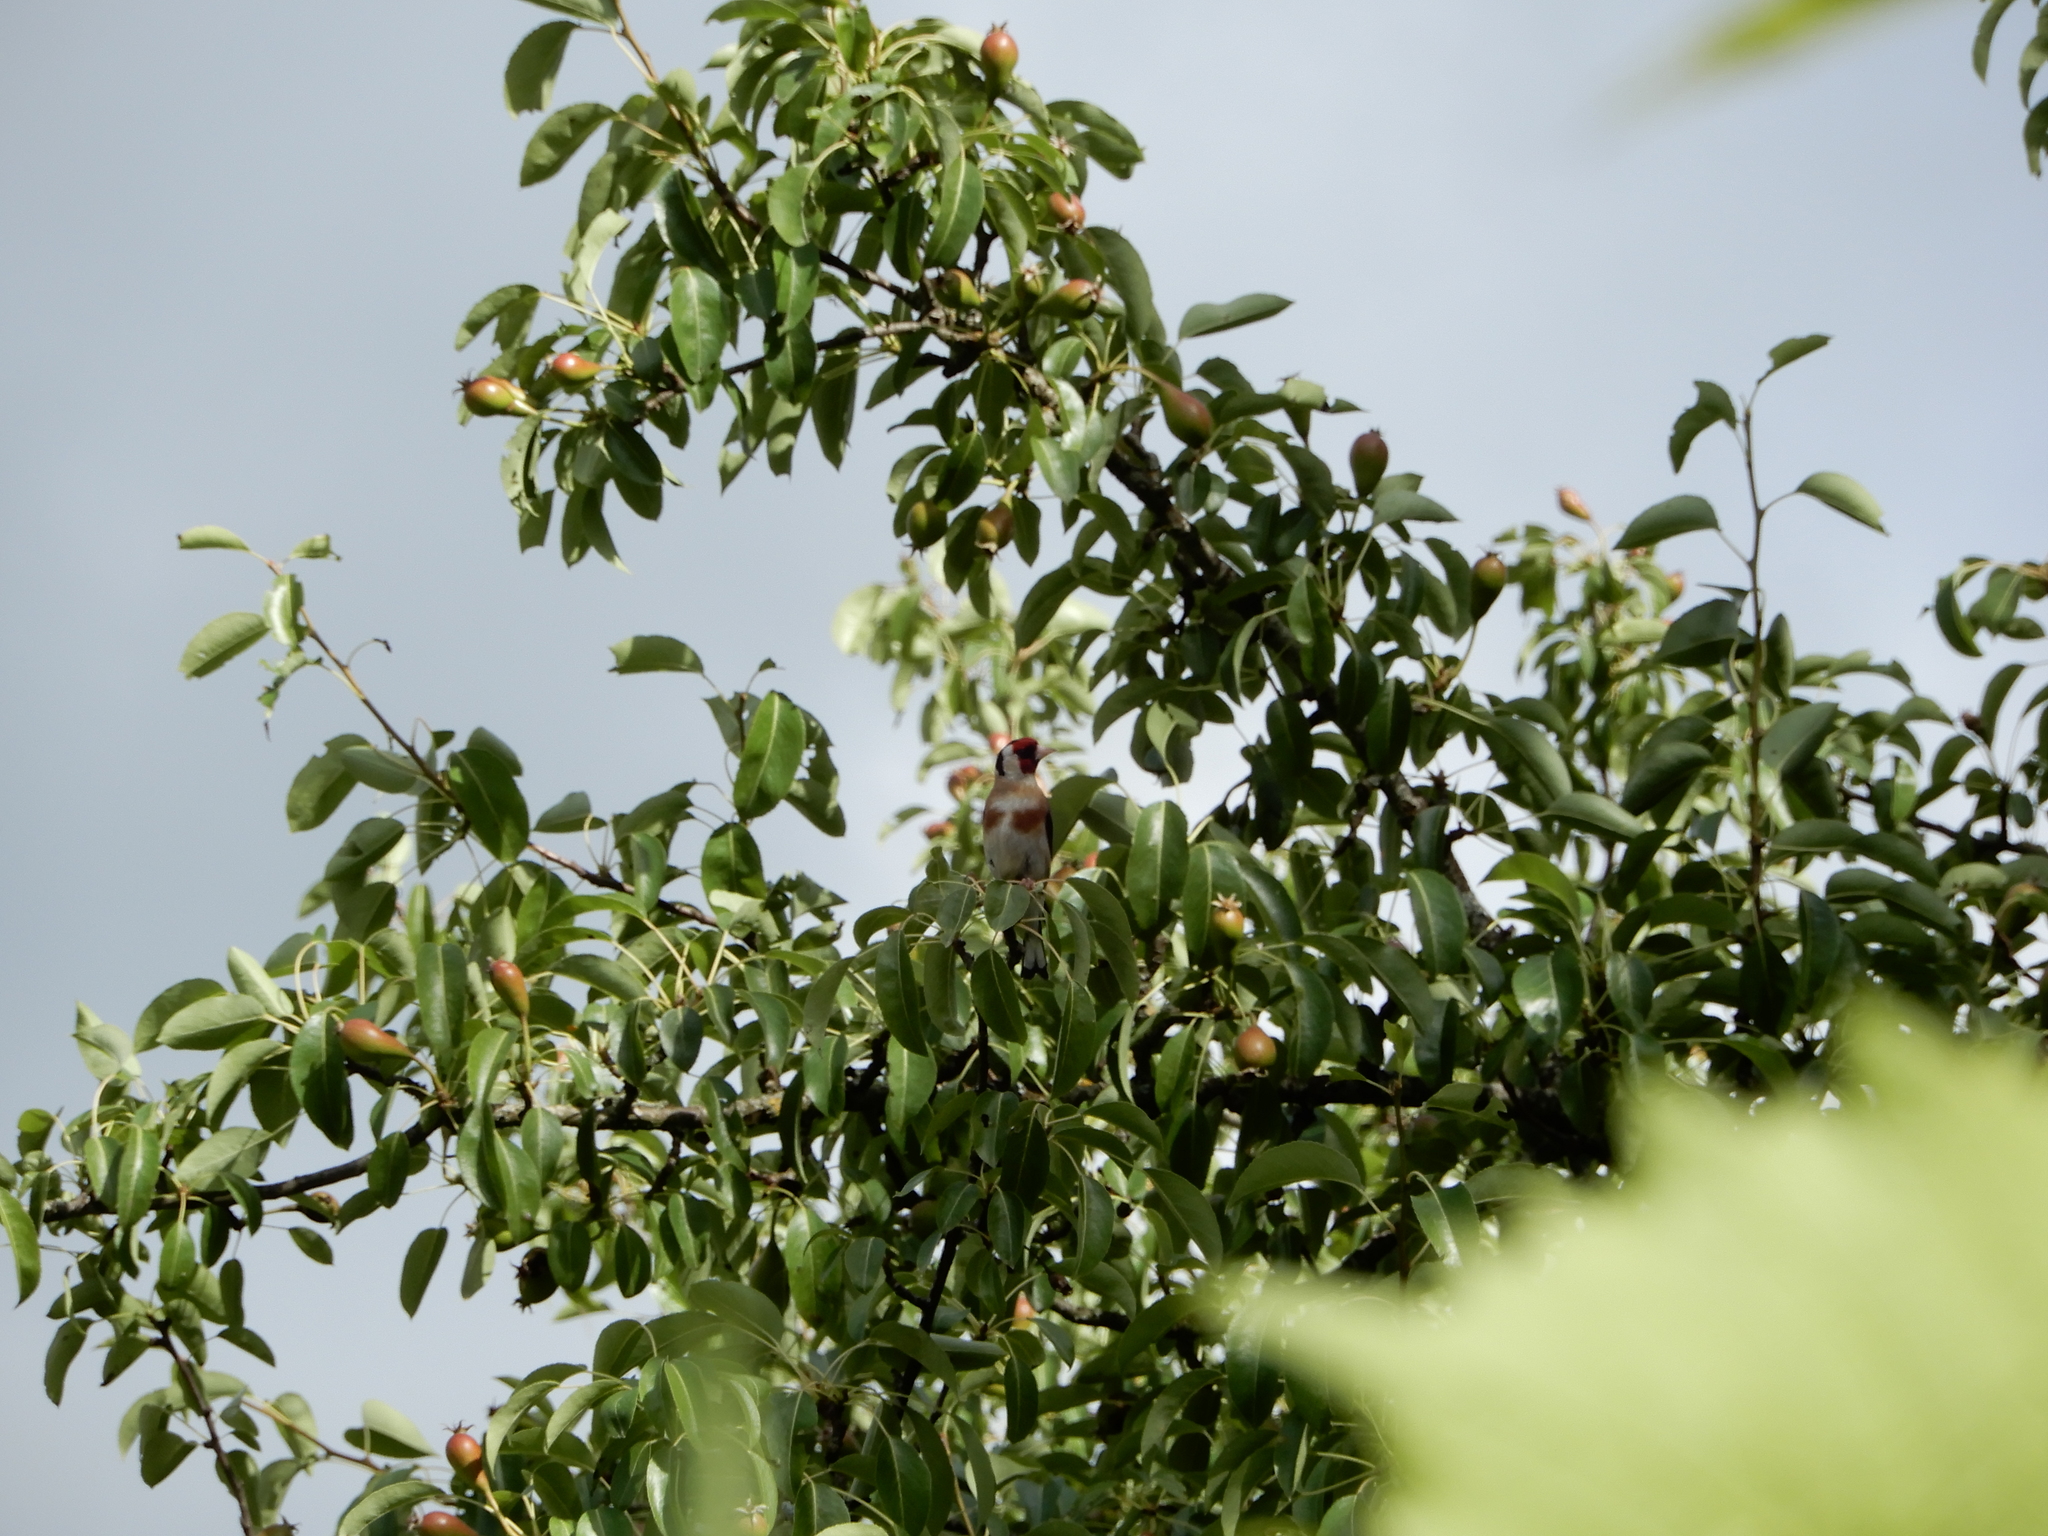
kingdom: Animalia
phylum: Chordata
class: Aves
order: Passeriformes
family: Fringillidae
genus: Carduelis
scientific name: Carduelis carduelis
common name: European goldfinch
